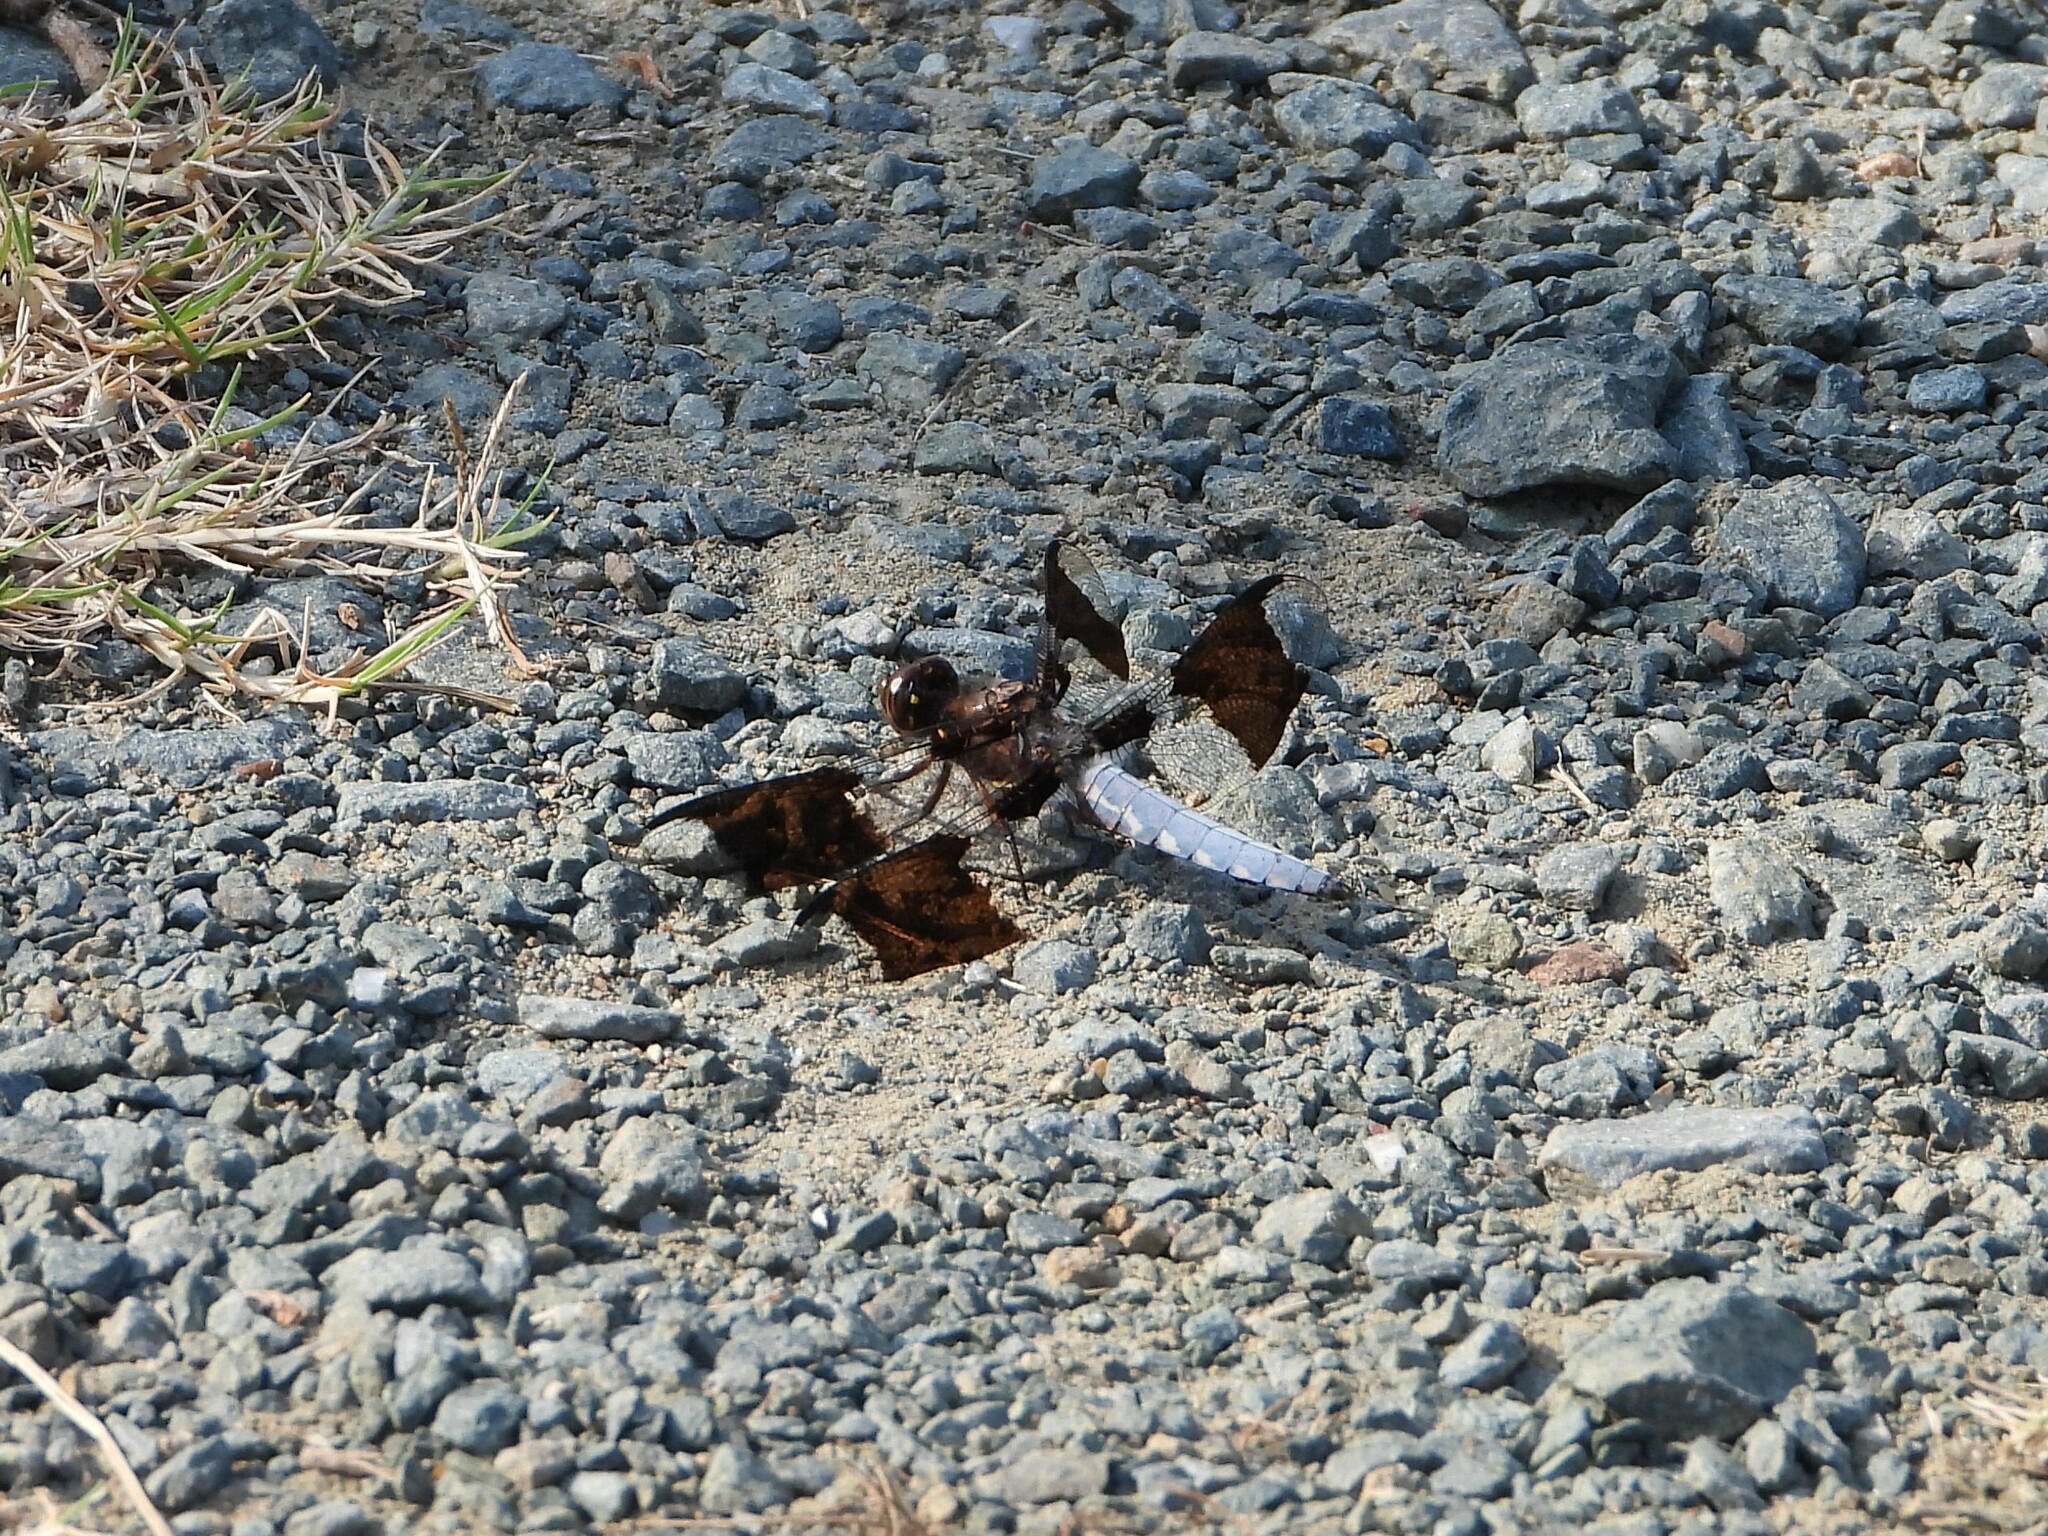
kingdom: Animalia
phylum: Arthropoda
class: Insecta
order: Odonata
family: Libellulidae
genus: Plathemis
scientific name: Plathemis lydia
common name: Common whitetail
